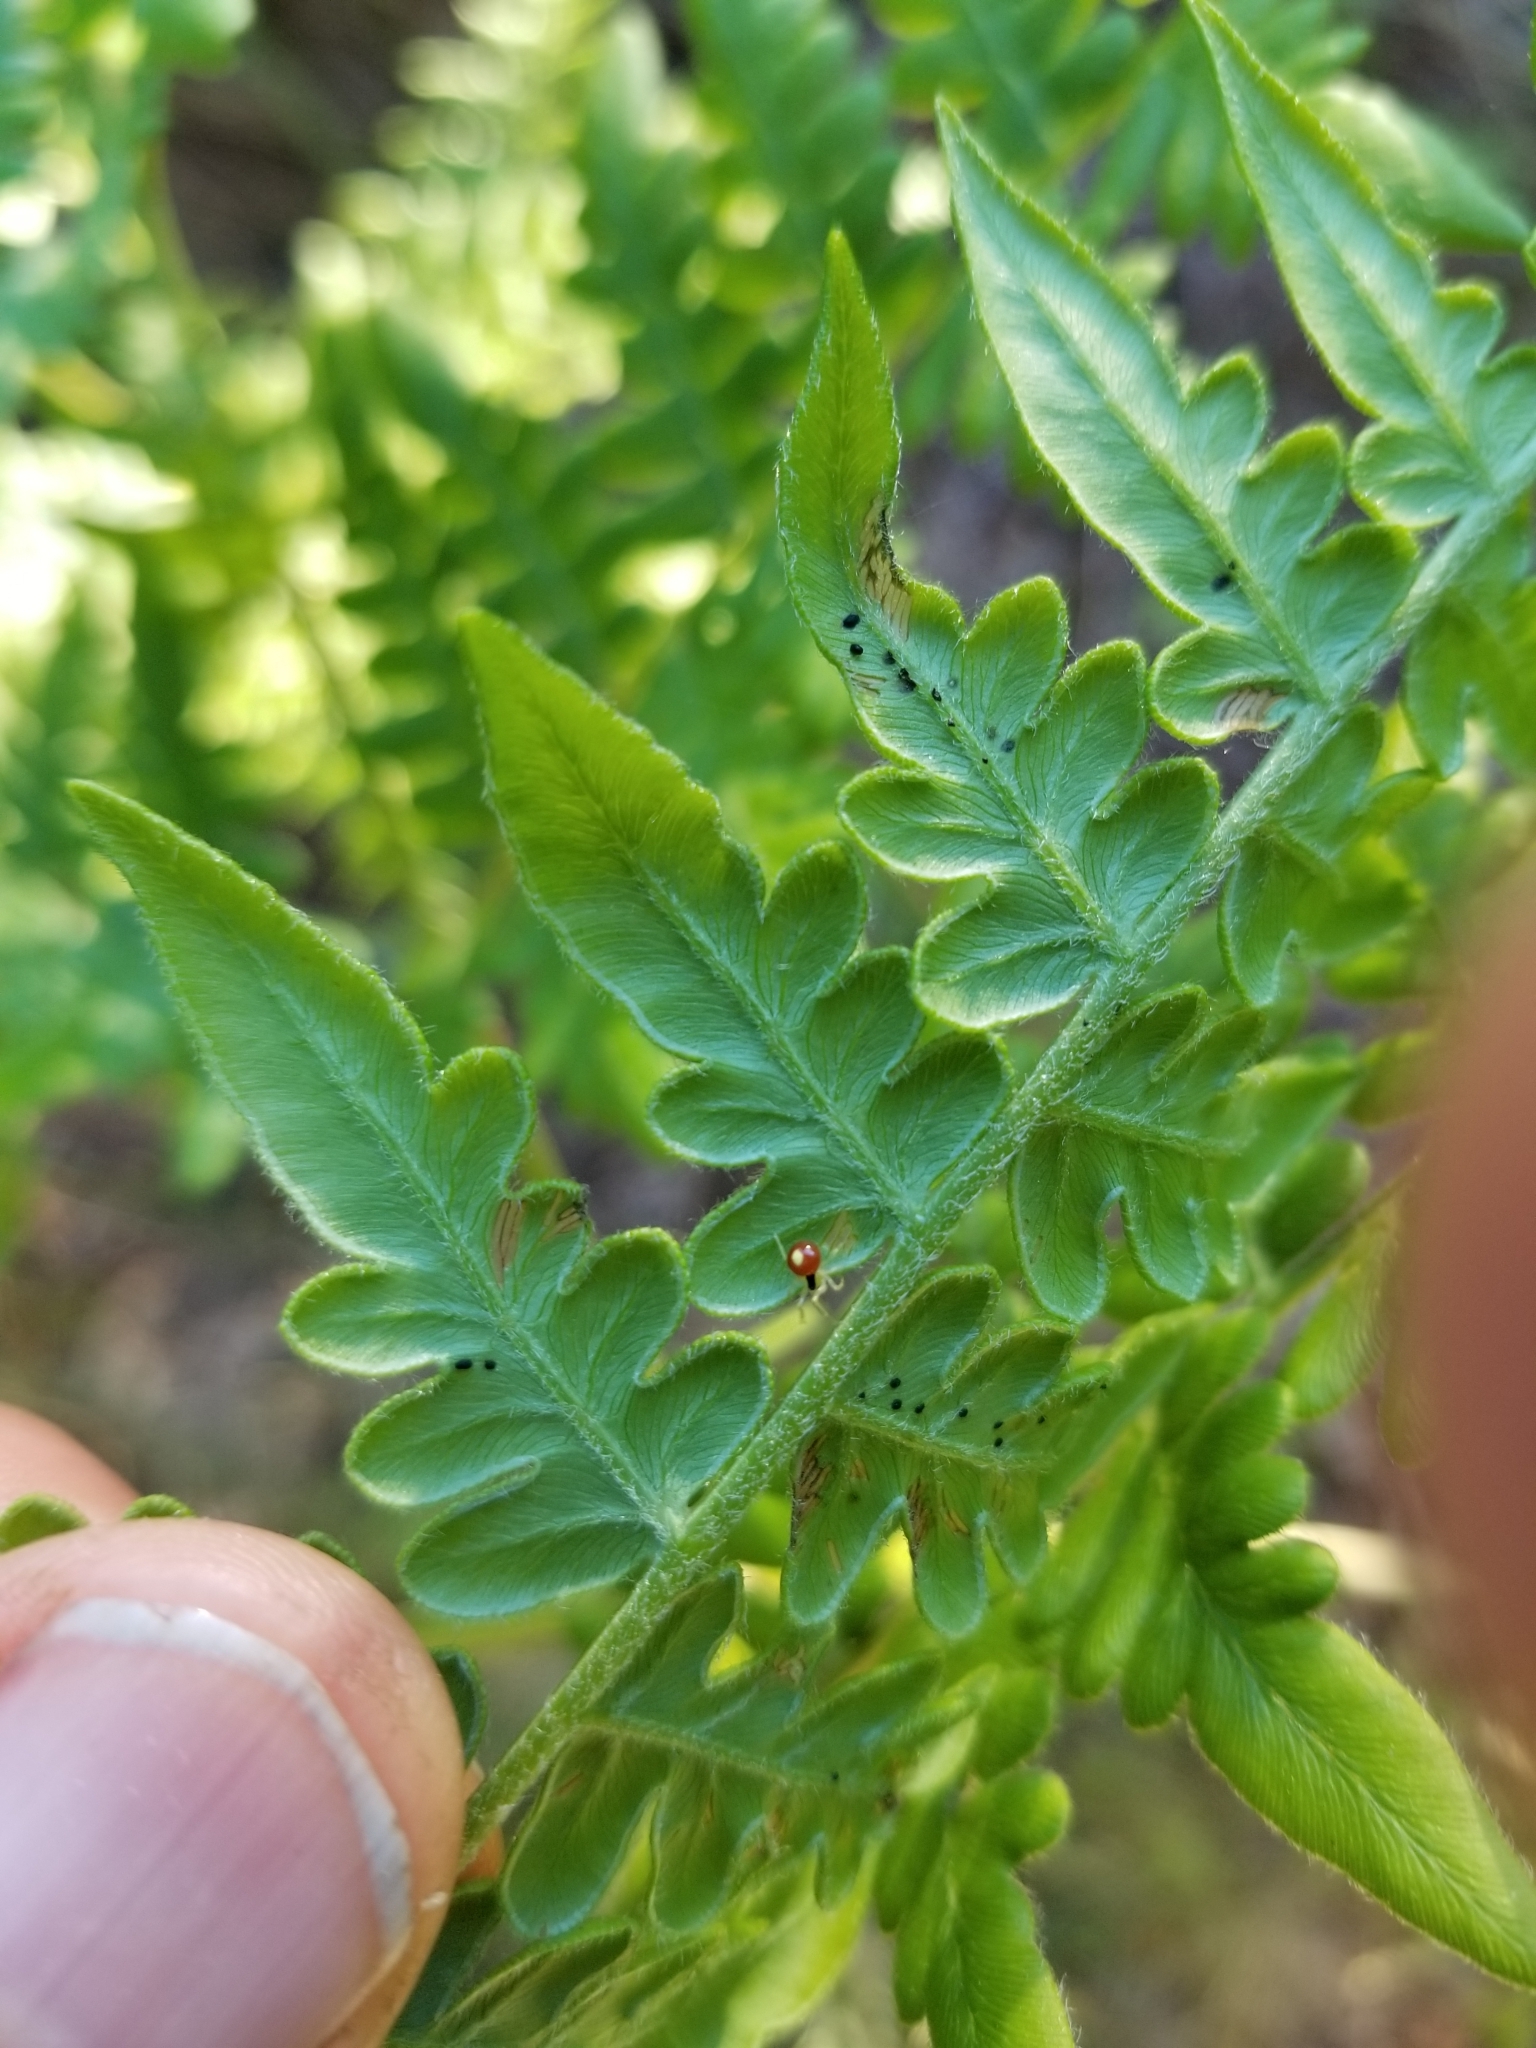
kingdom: Animalia
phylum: Arthropoda
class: Arachnida
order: Araneae
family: Theridiidae
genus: Theridula
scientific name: Theridula
